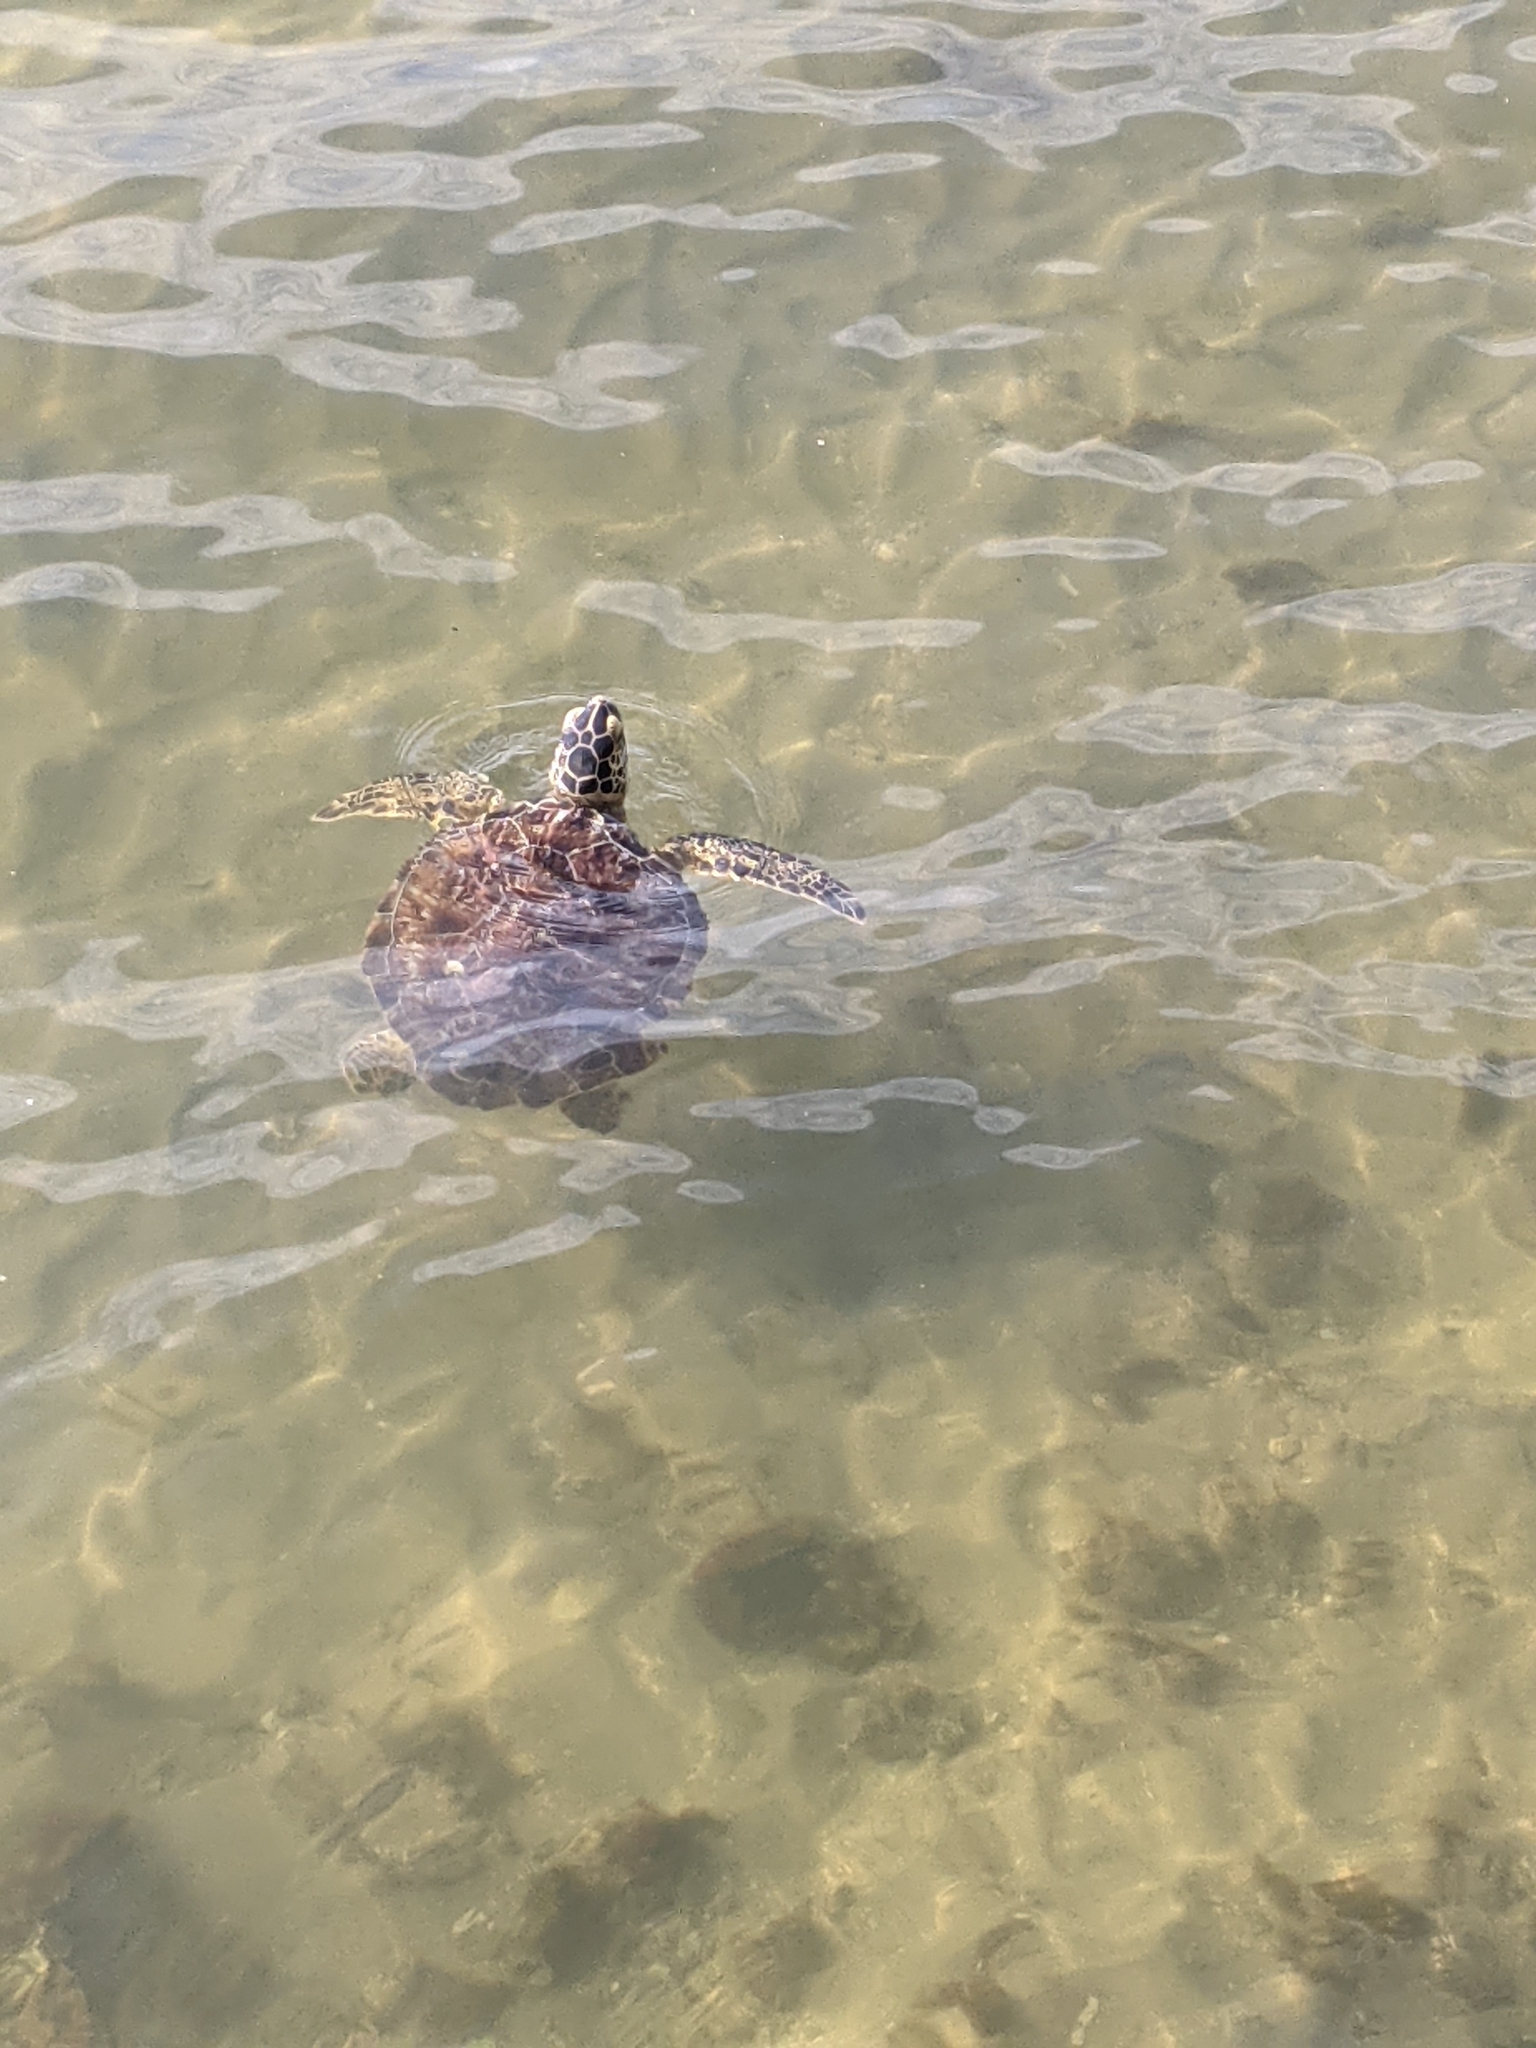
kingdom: Animalia
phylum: Chordata
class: Testudines
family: Cheloniidae
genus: Chelonia
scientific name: Chelonia mydas
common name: Green turtle
